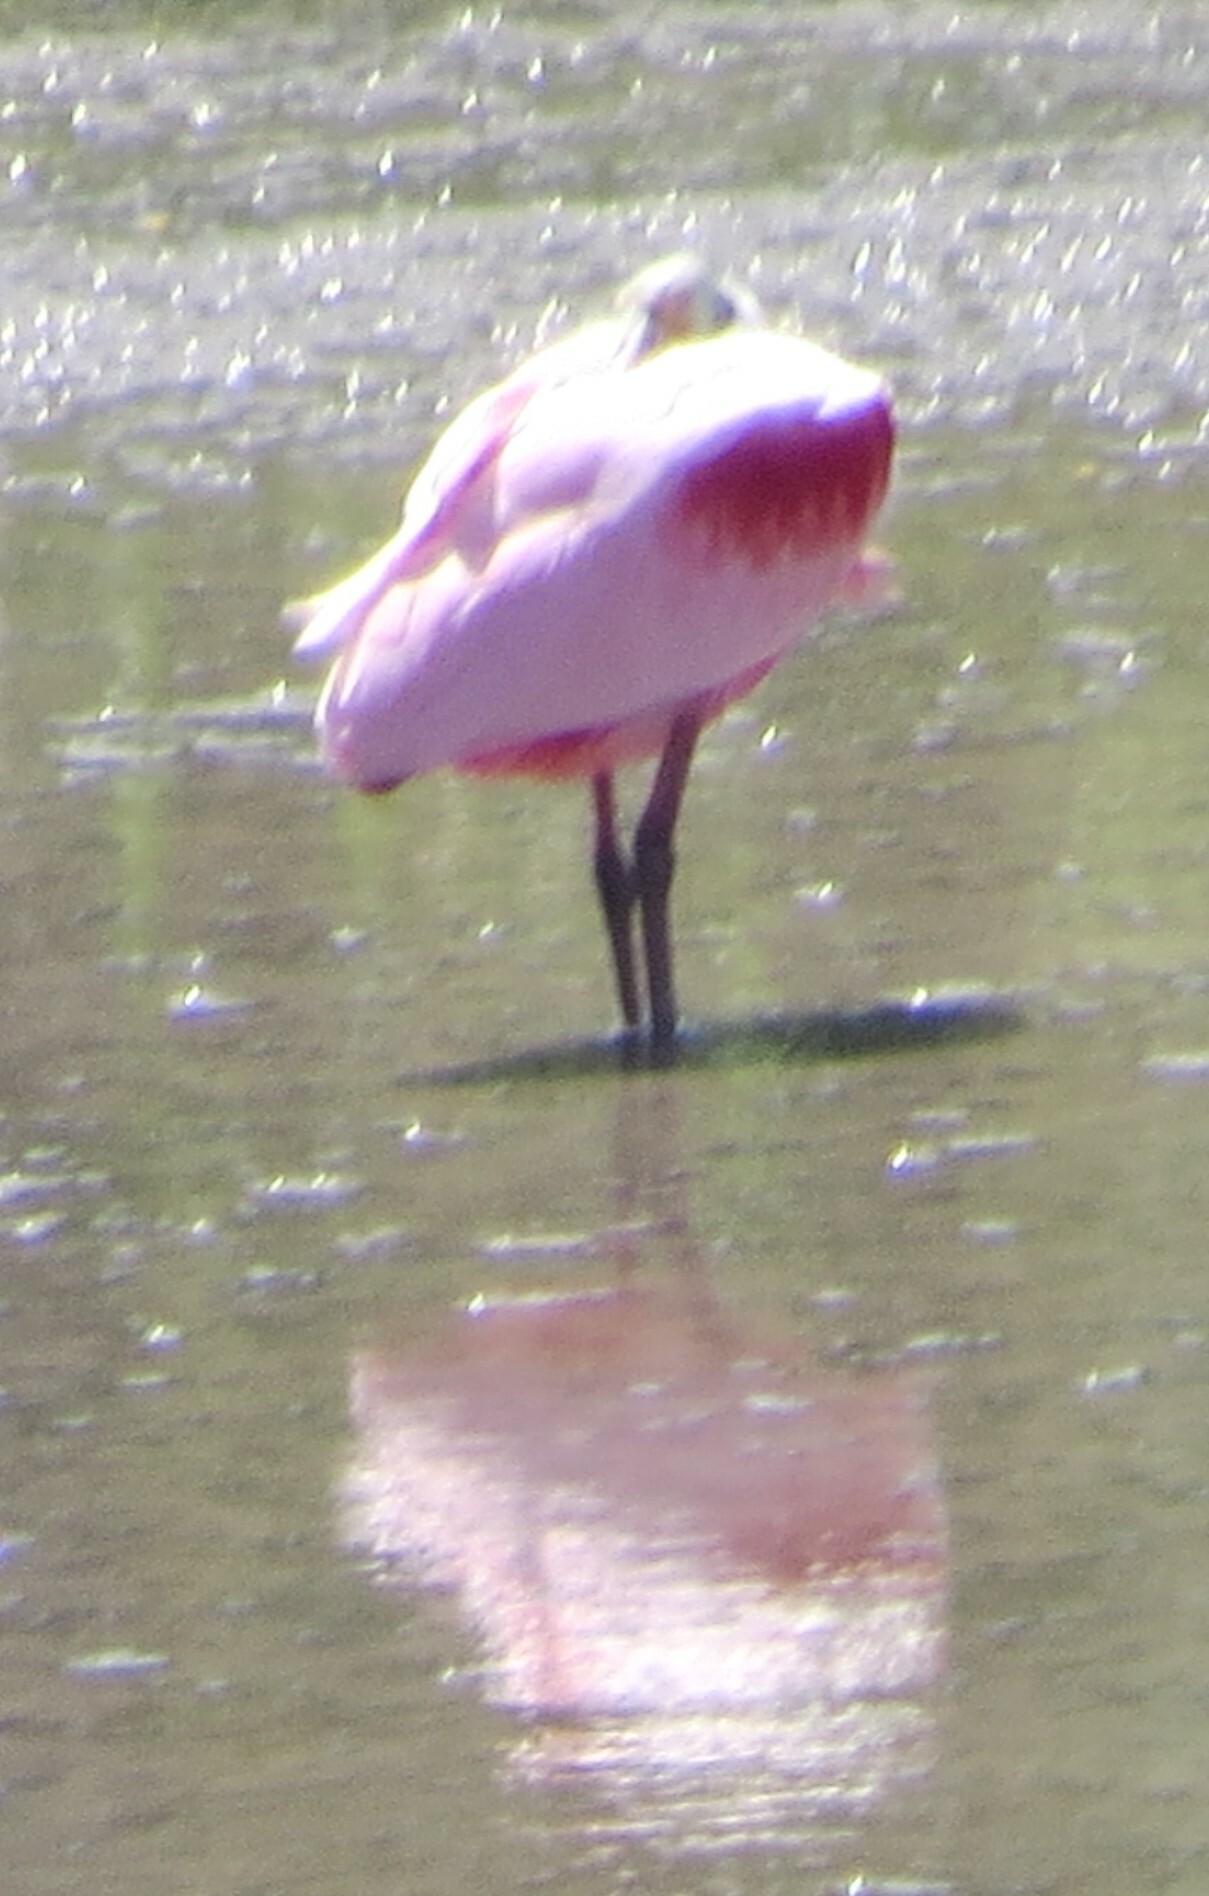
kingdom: Animalia
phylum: Chordata
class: Aves
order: Pelecaniformes
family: Threskiornithidae
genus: Platalea
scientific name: Platalea ajaja
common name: Roseate spoonbill
